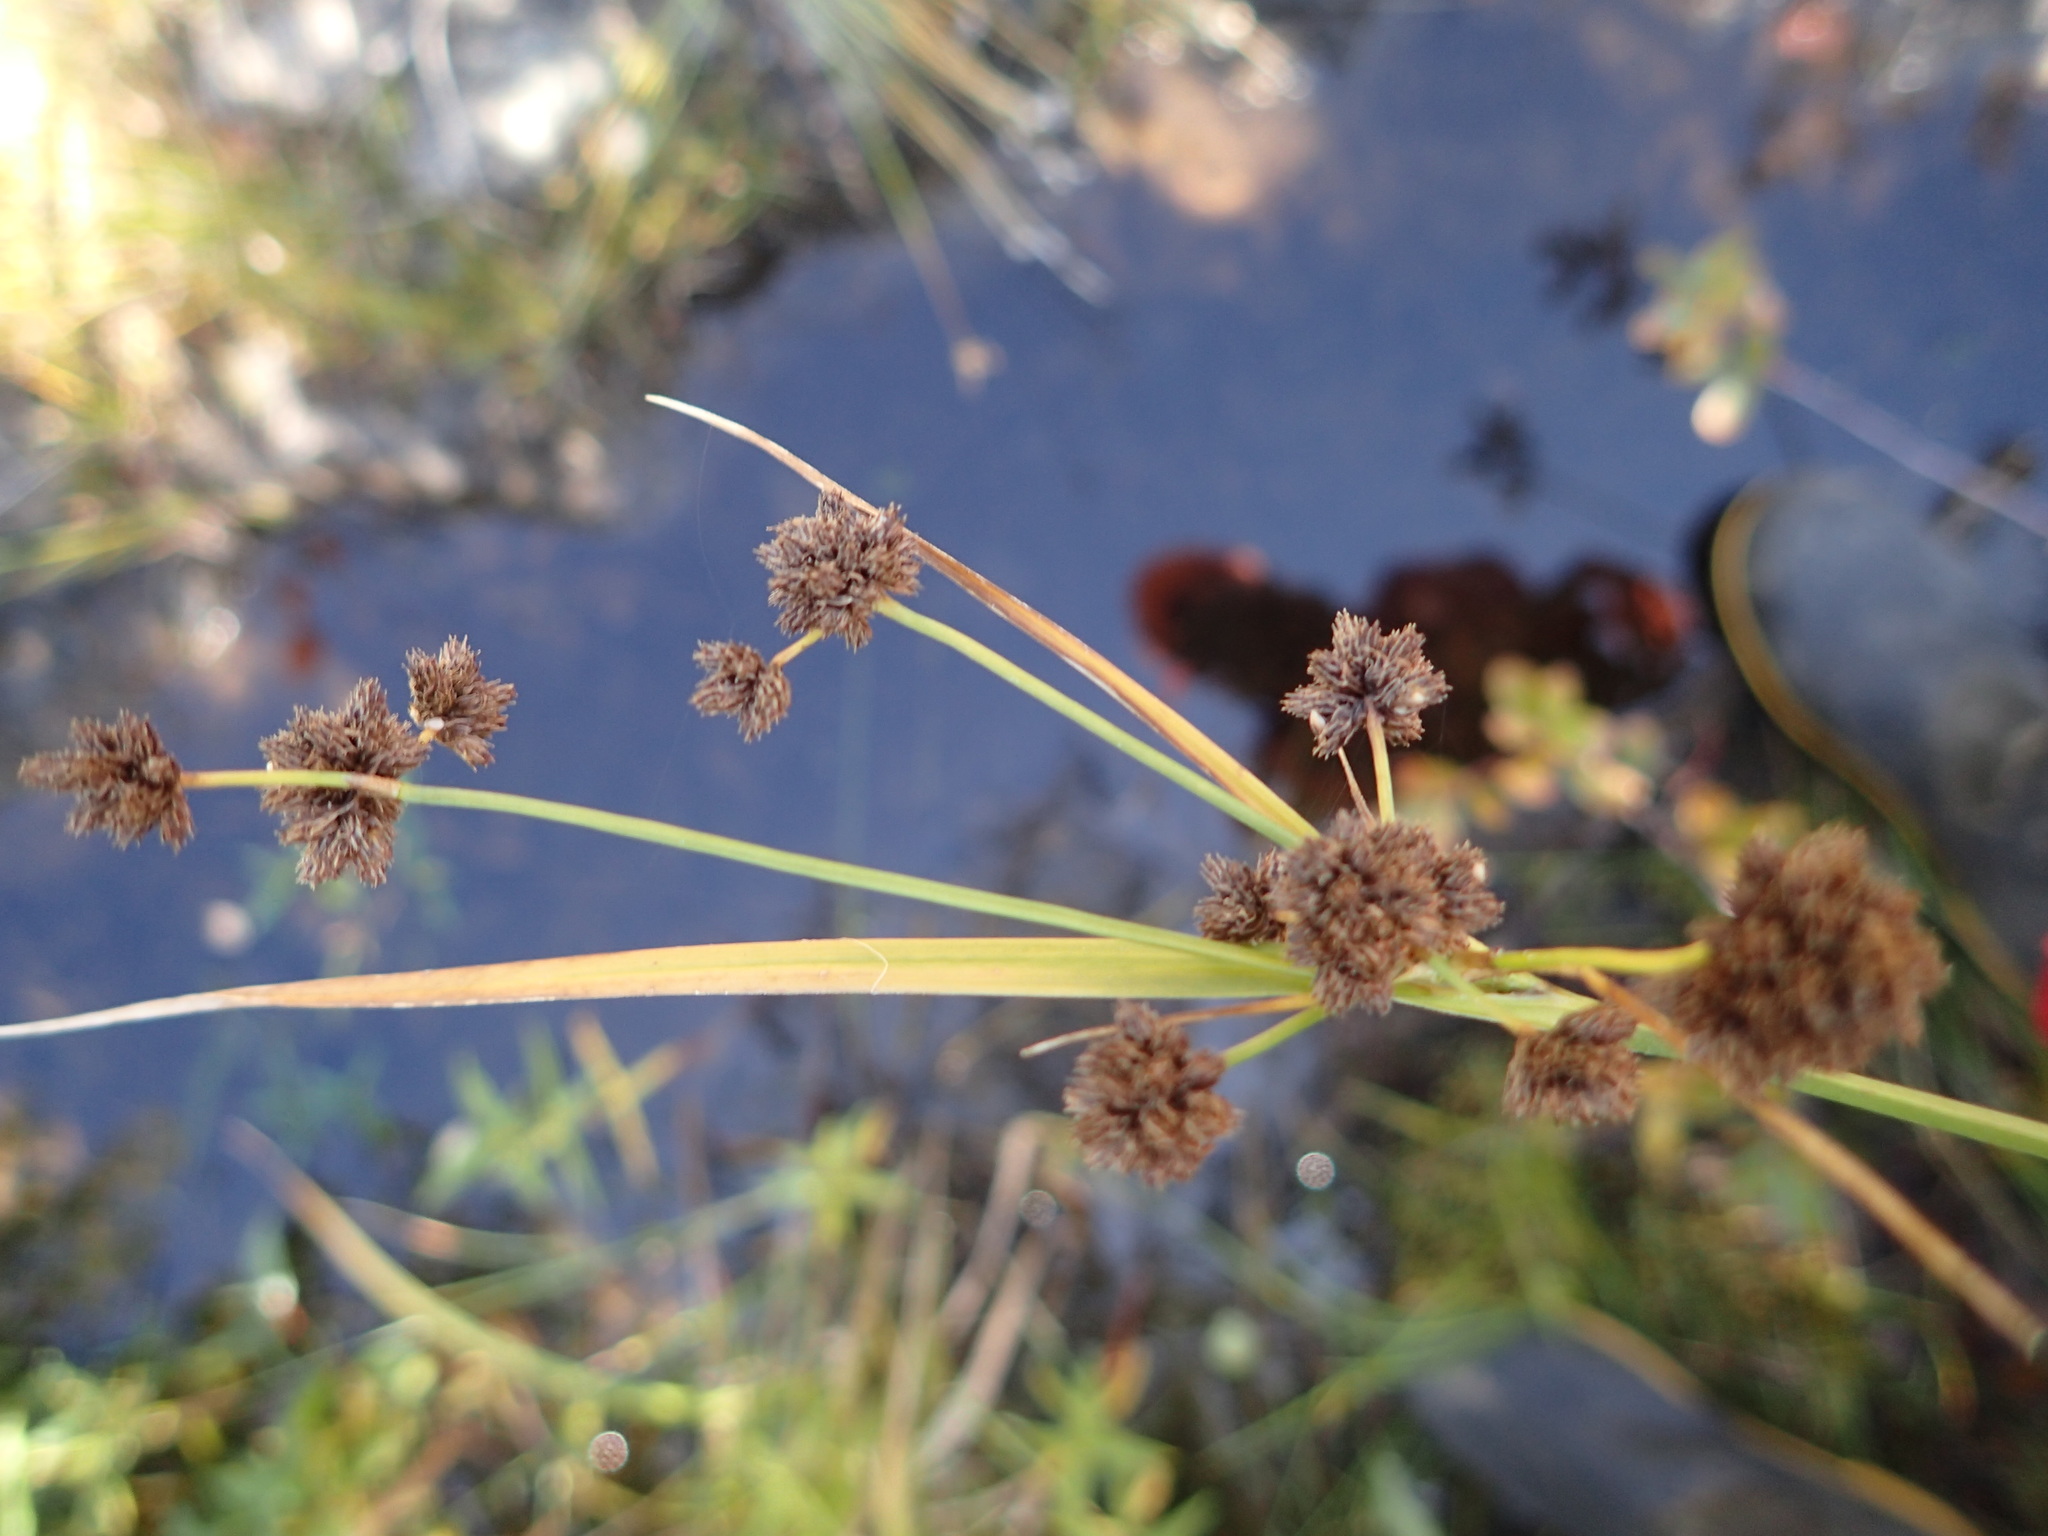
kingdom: Plantae
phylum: Tracheophyta
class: Liliopsida
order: Poales
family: Cyperaceae
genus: Scirpus
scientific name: Scirpus atrovirens
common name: Black bulrush
